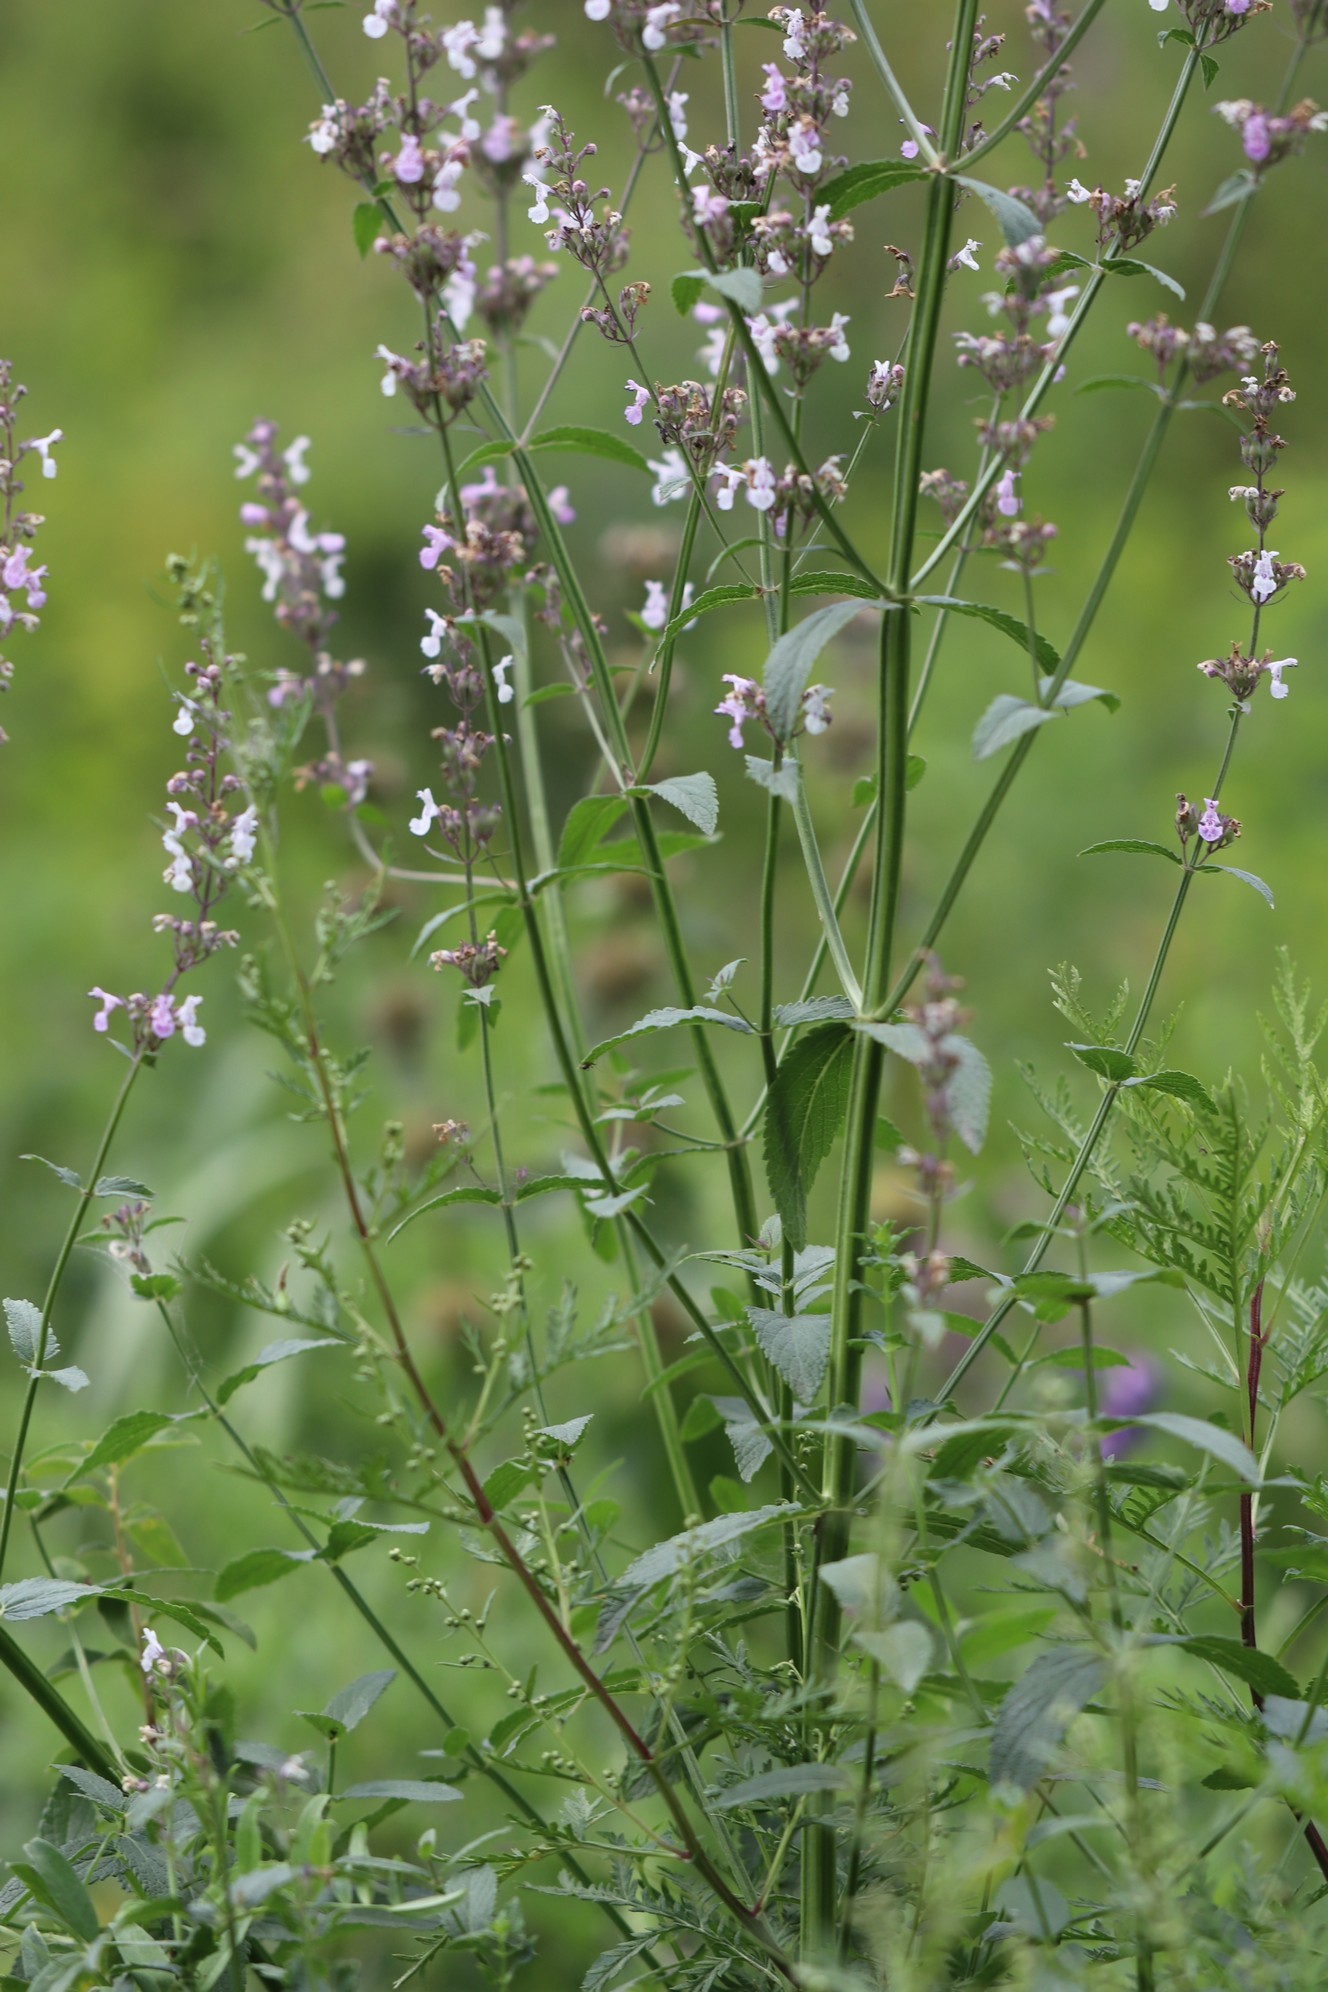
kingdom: Plantae
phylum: Tracheophyta
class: Magnoliopsida
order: Lamiales
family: Lamiaceae
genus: Nepeta
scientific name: Nepeta nuda
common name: Hairless catmint
